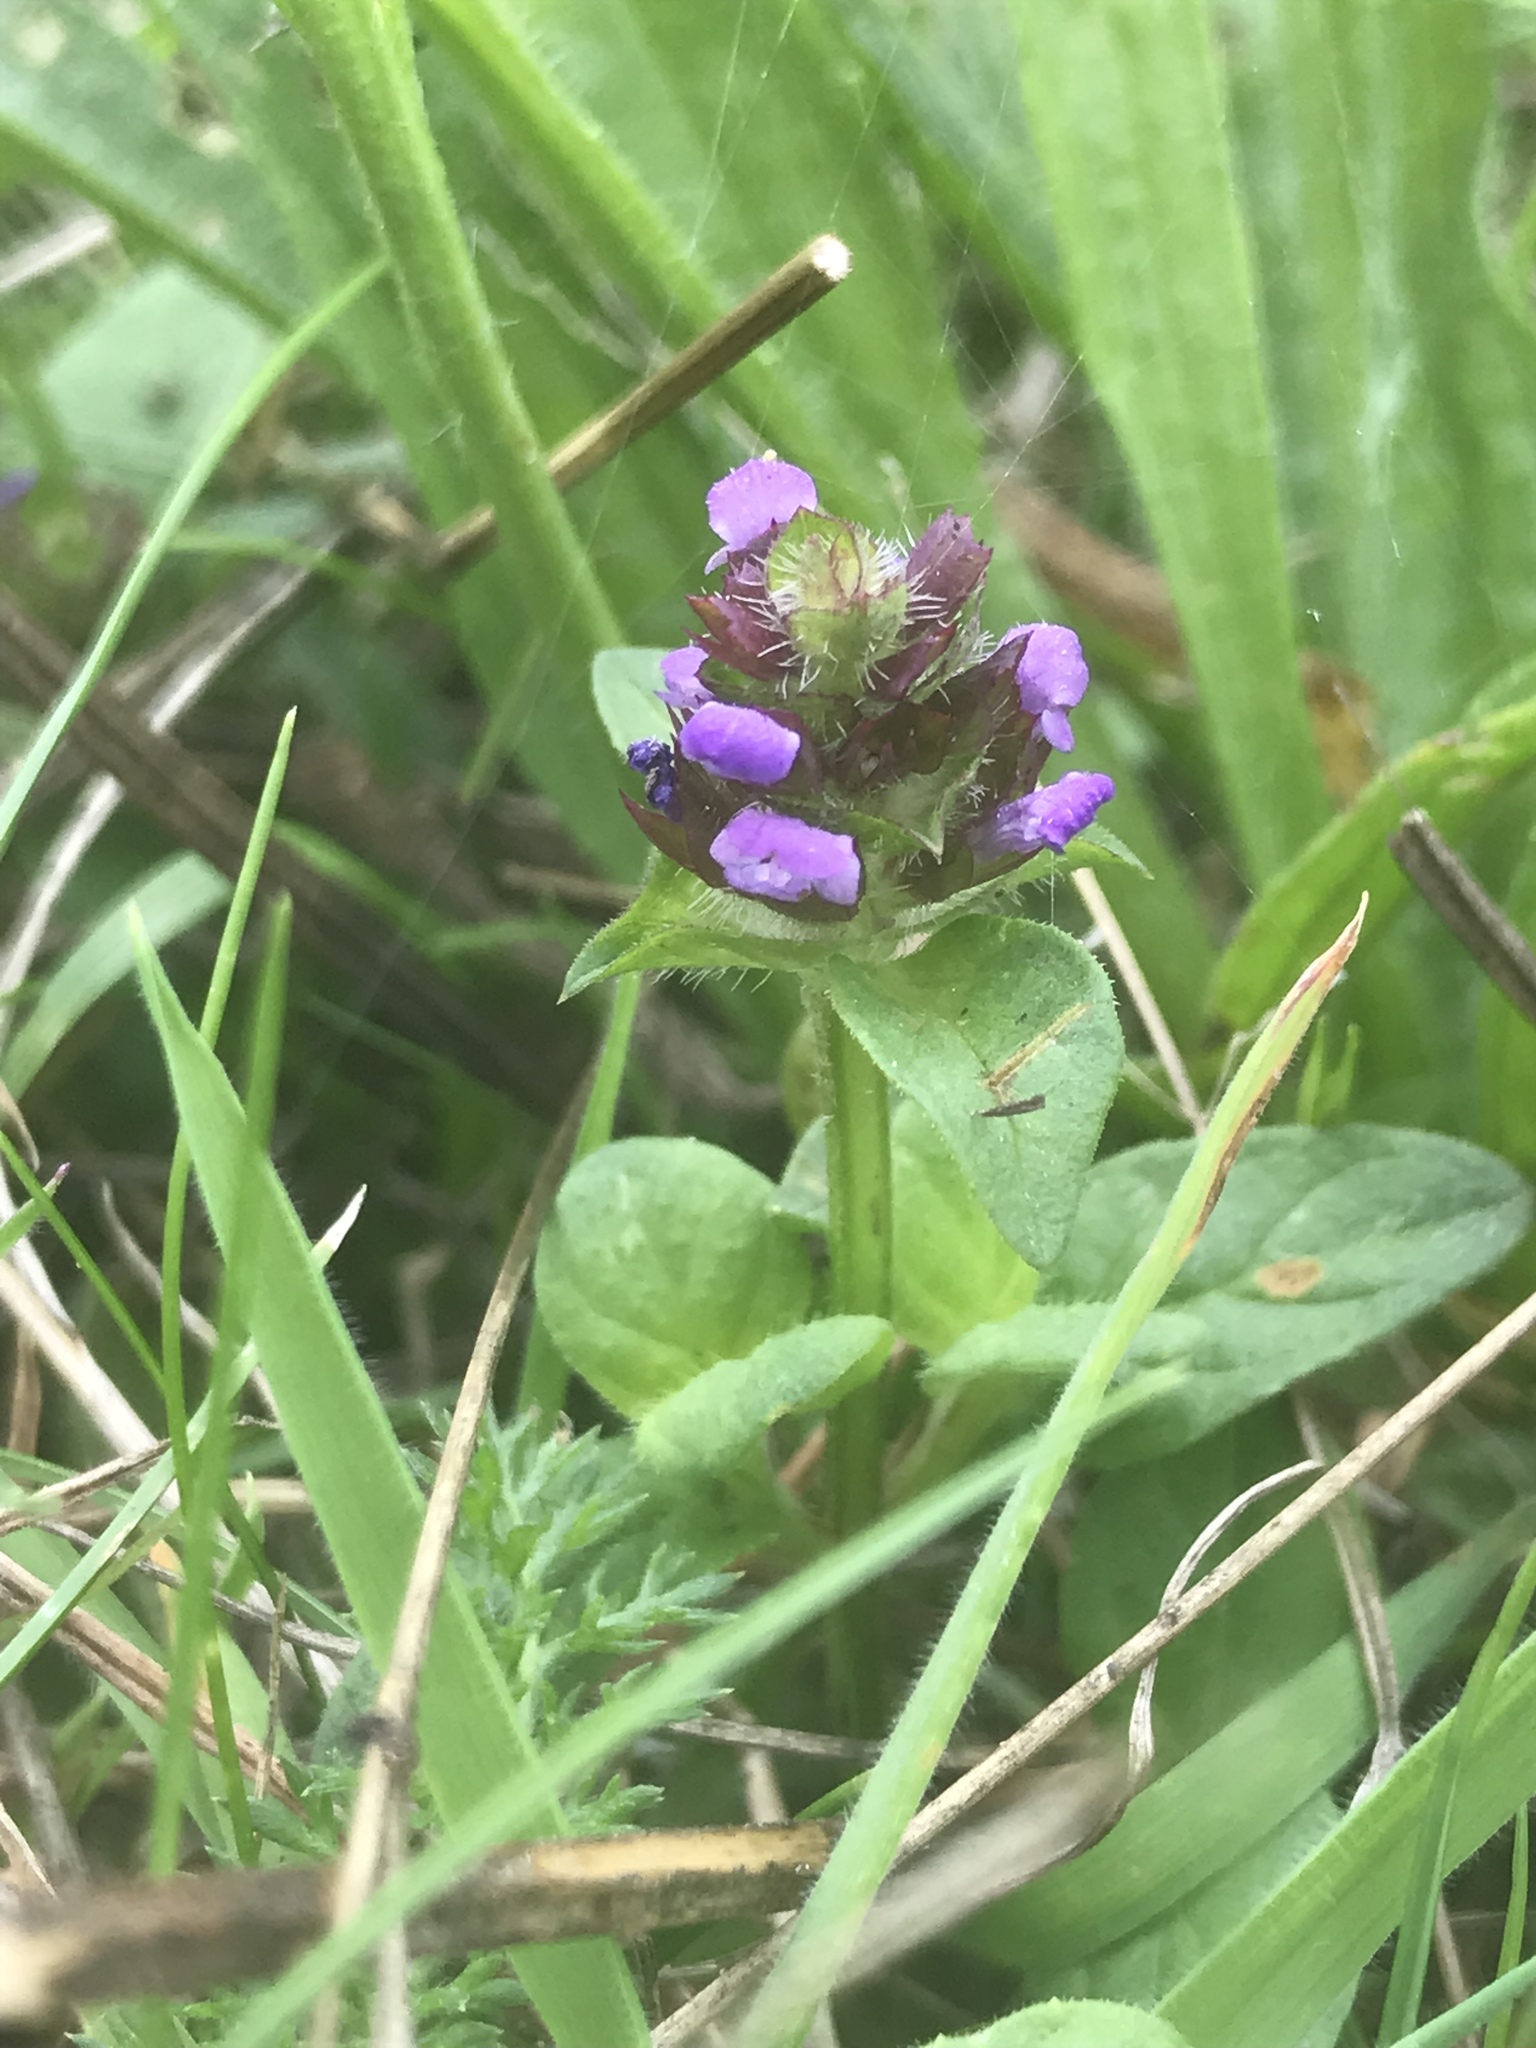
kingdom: Plantae
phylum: Tracheophyta
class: Magnoliopsida
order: Lamiales
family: Lamiaceae
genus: Prunella
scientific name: Prunella vulgaris
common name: Heal-all
